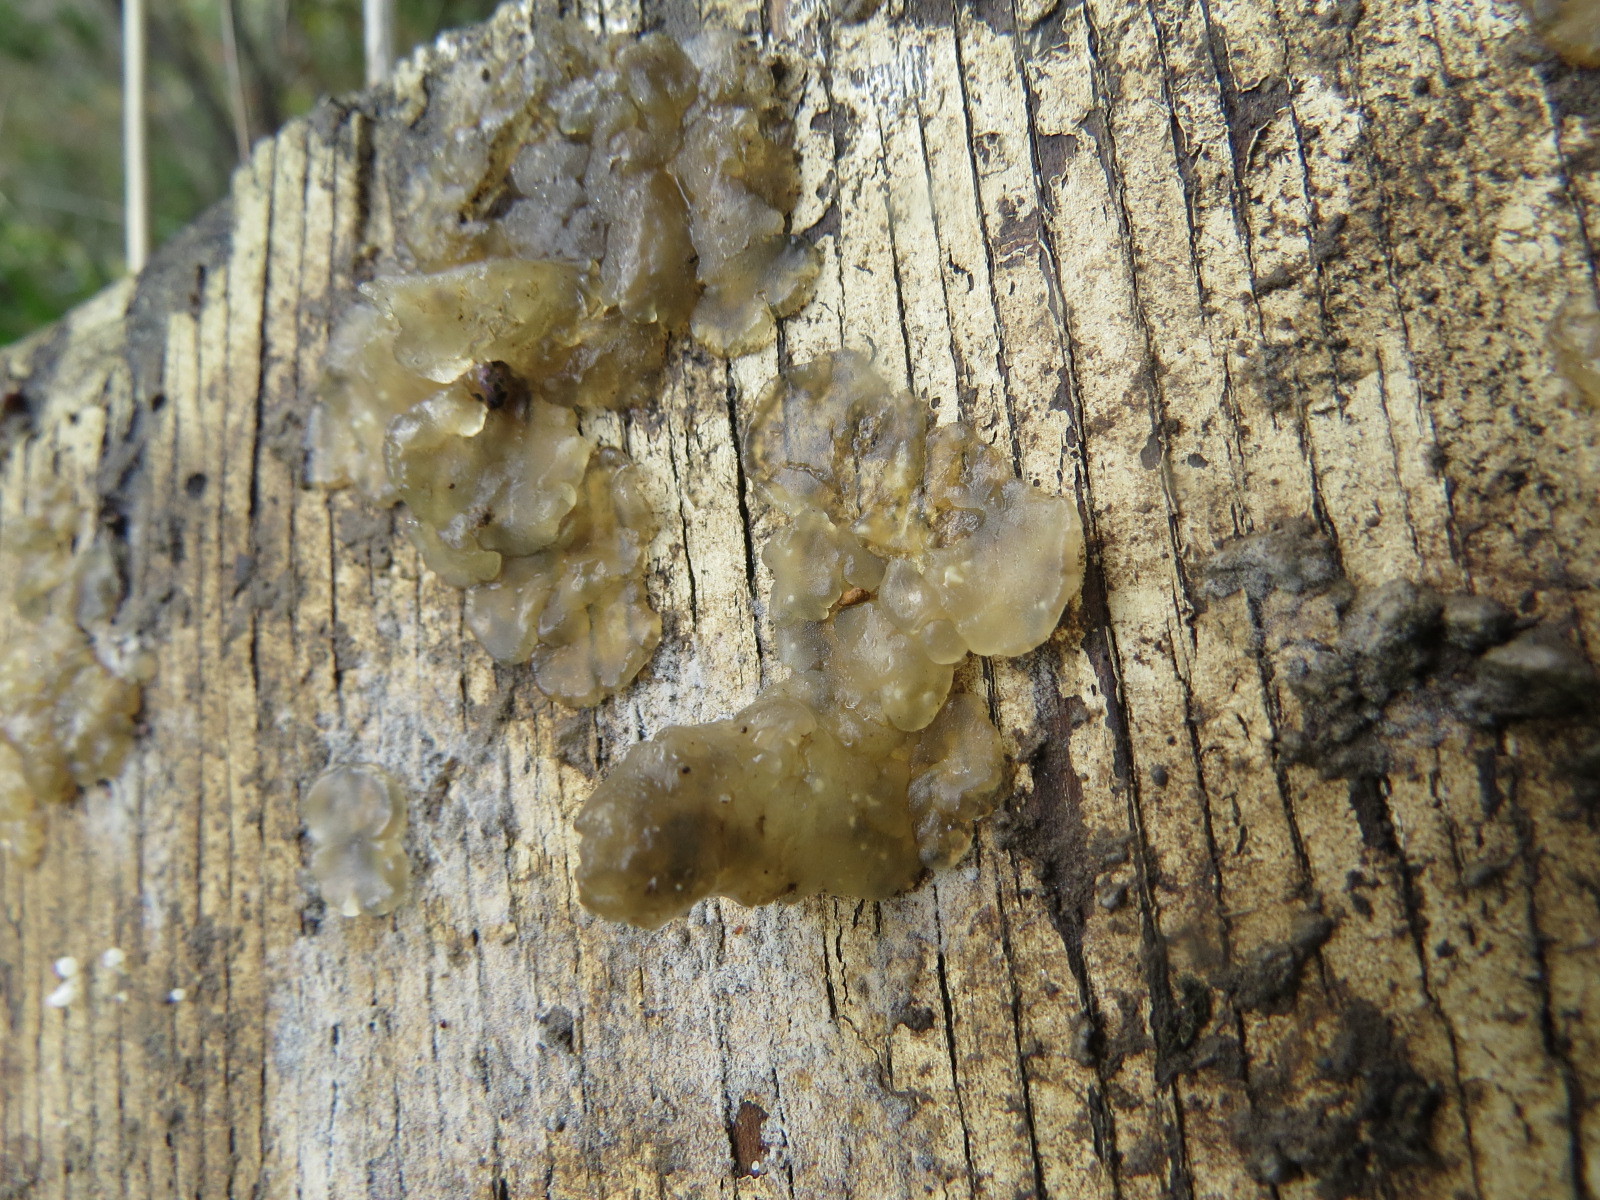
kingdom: Fungi
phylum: Basidiomycota
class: Agaricomycetes
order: Auriculariales
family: Hyaloriaceae
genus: Myxarium
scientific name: Myxarium nucleatum
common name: Crystal brain fungus
